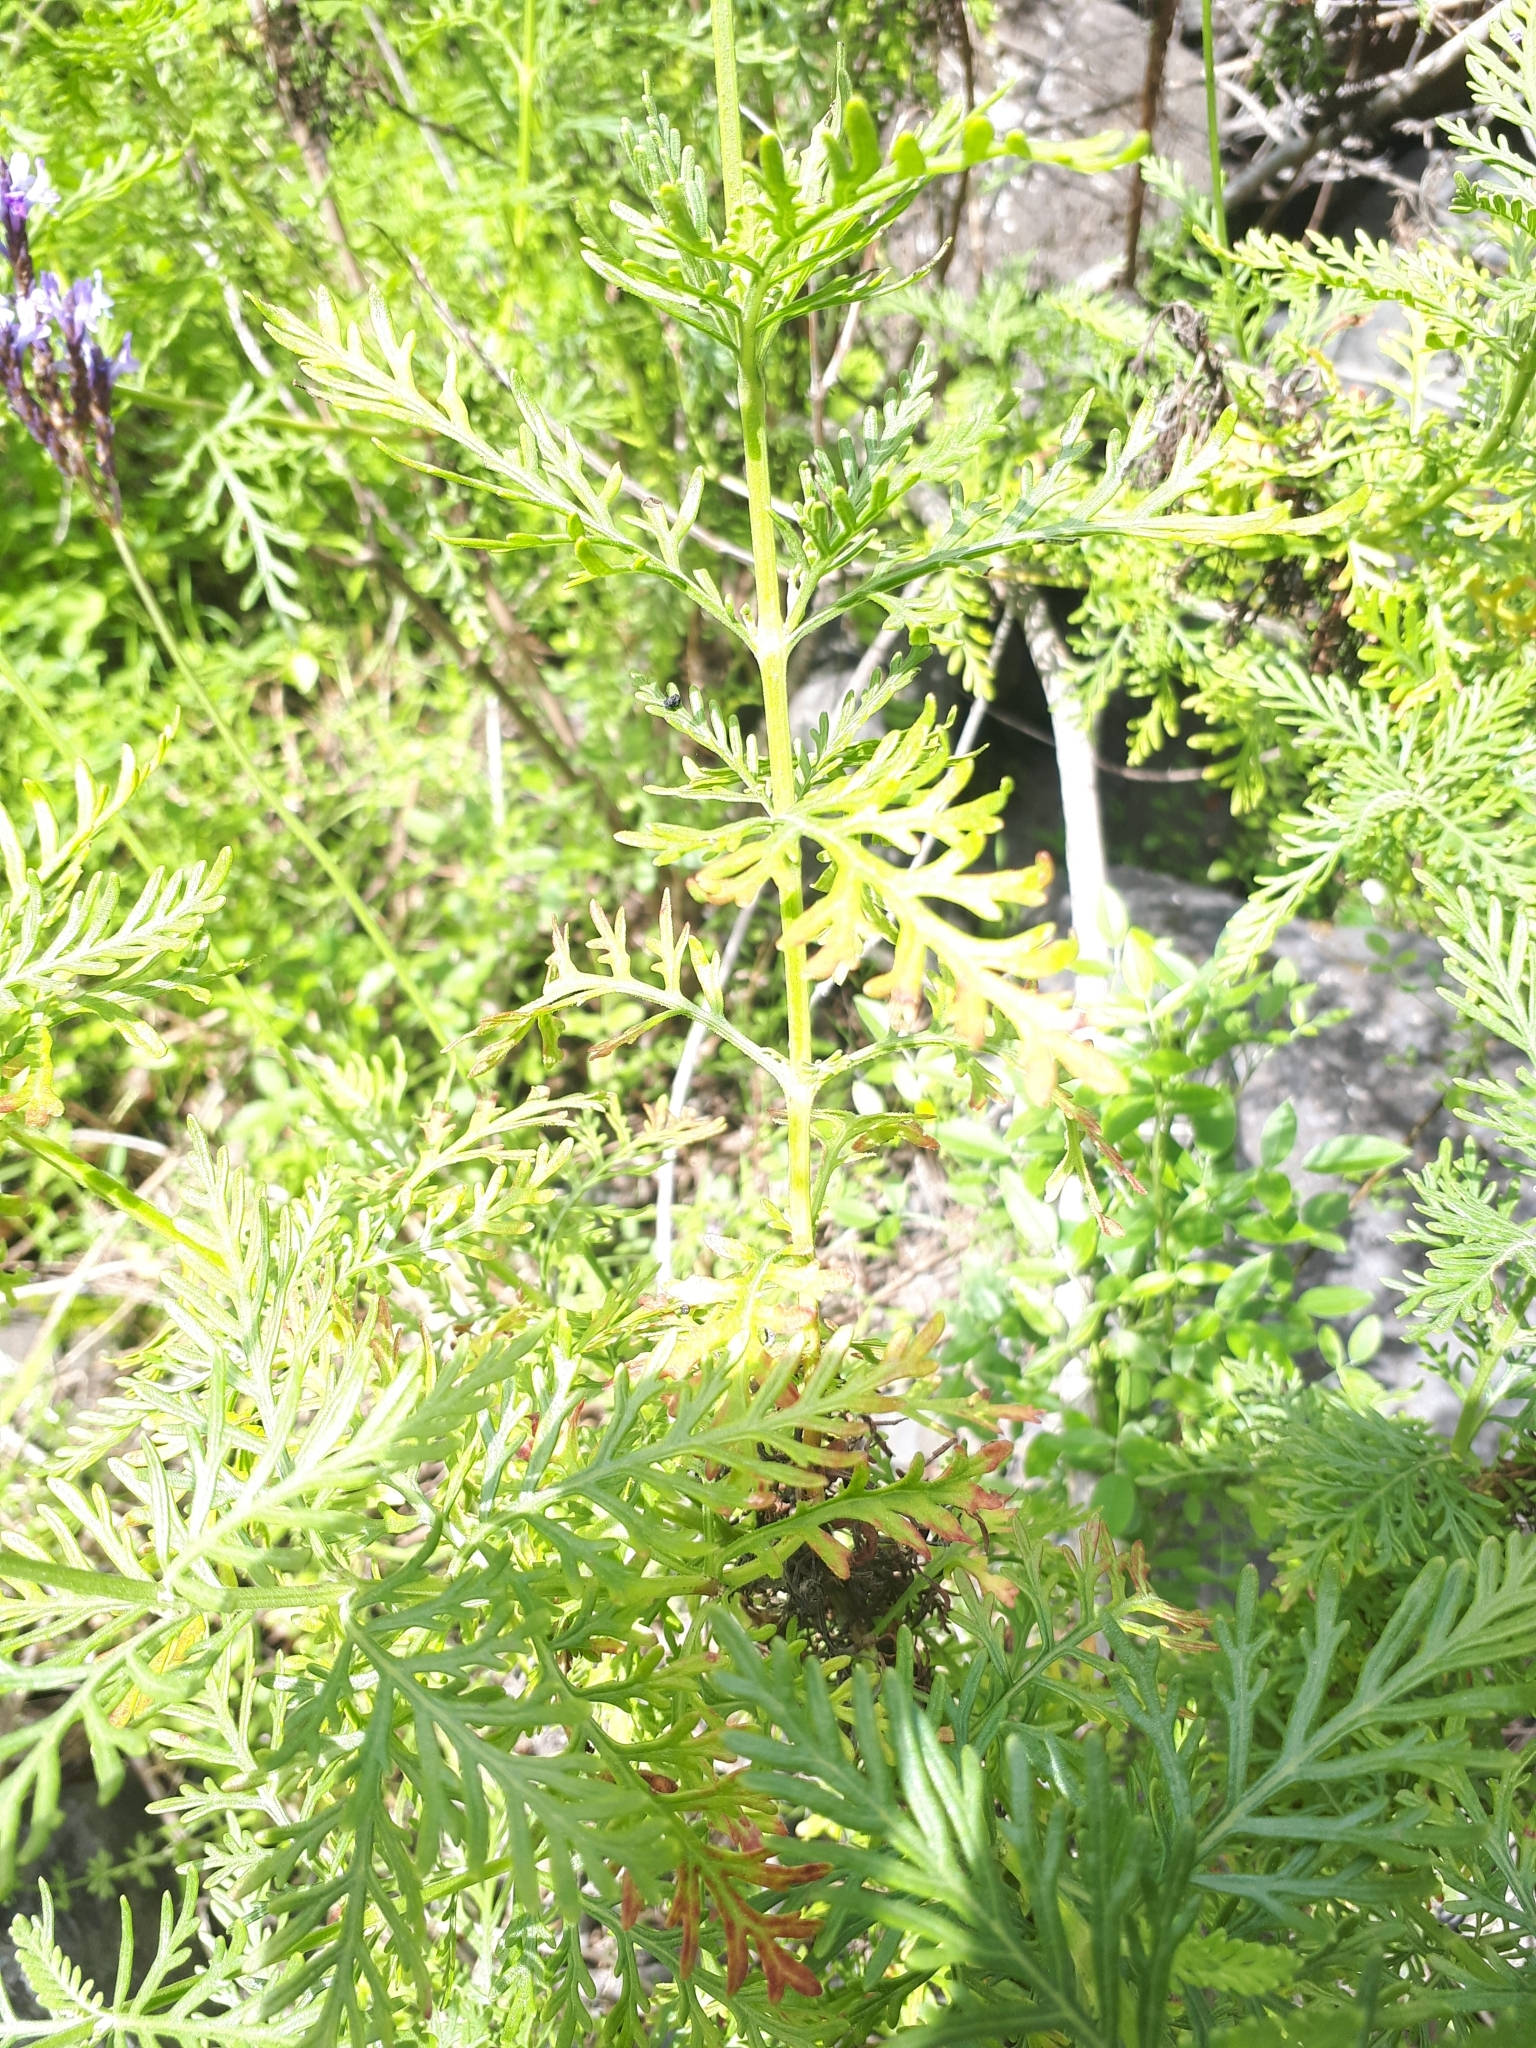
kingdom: Plantae
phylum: Tracheophyta
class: Magnoliopsida
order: Lamiales
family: Lamiaceae
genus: Lavandula
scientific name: Lavandula canariensis
